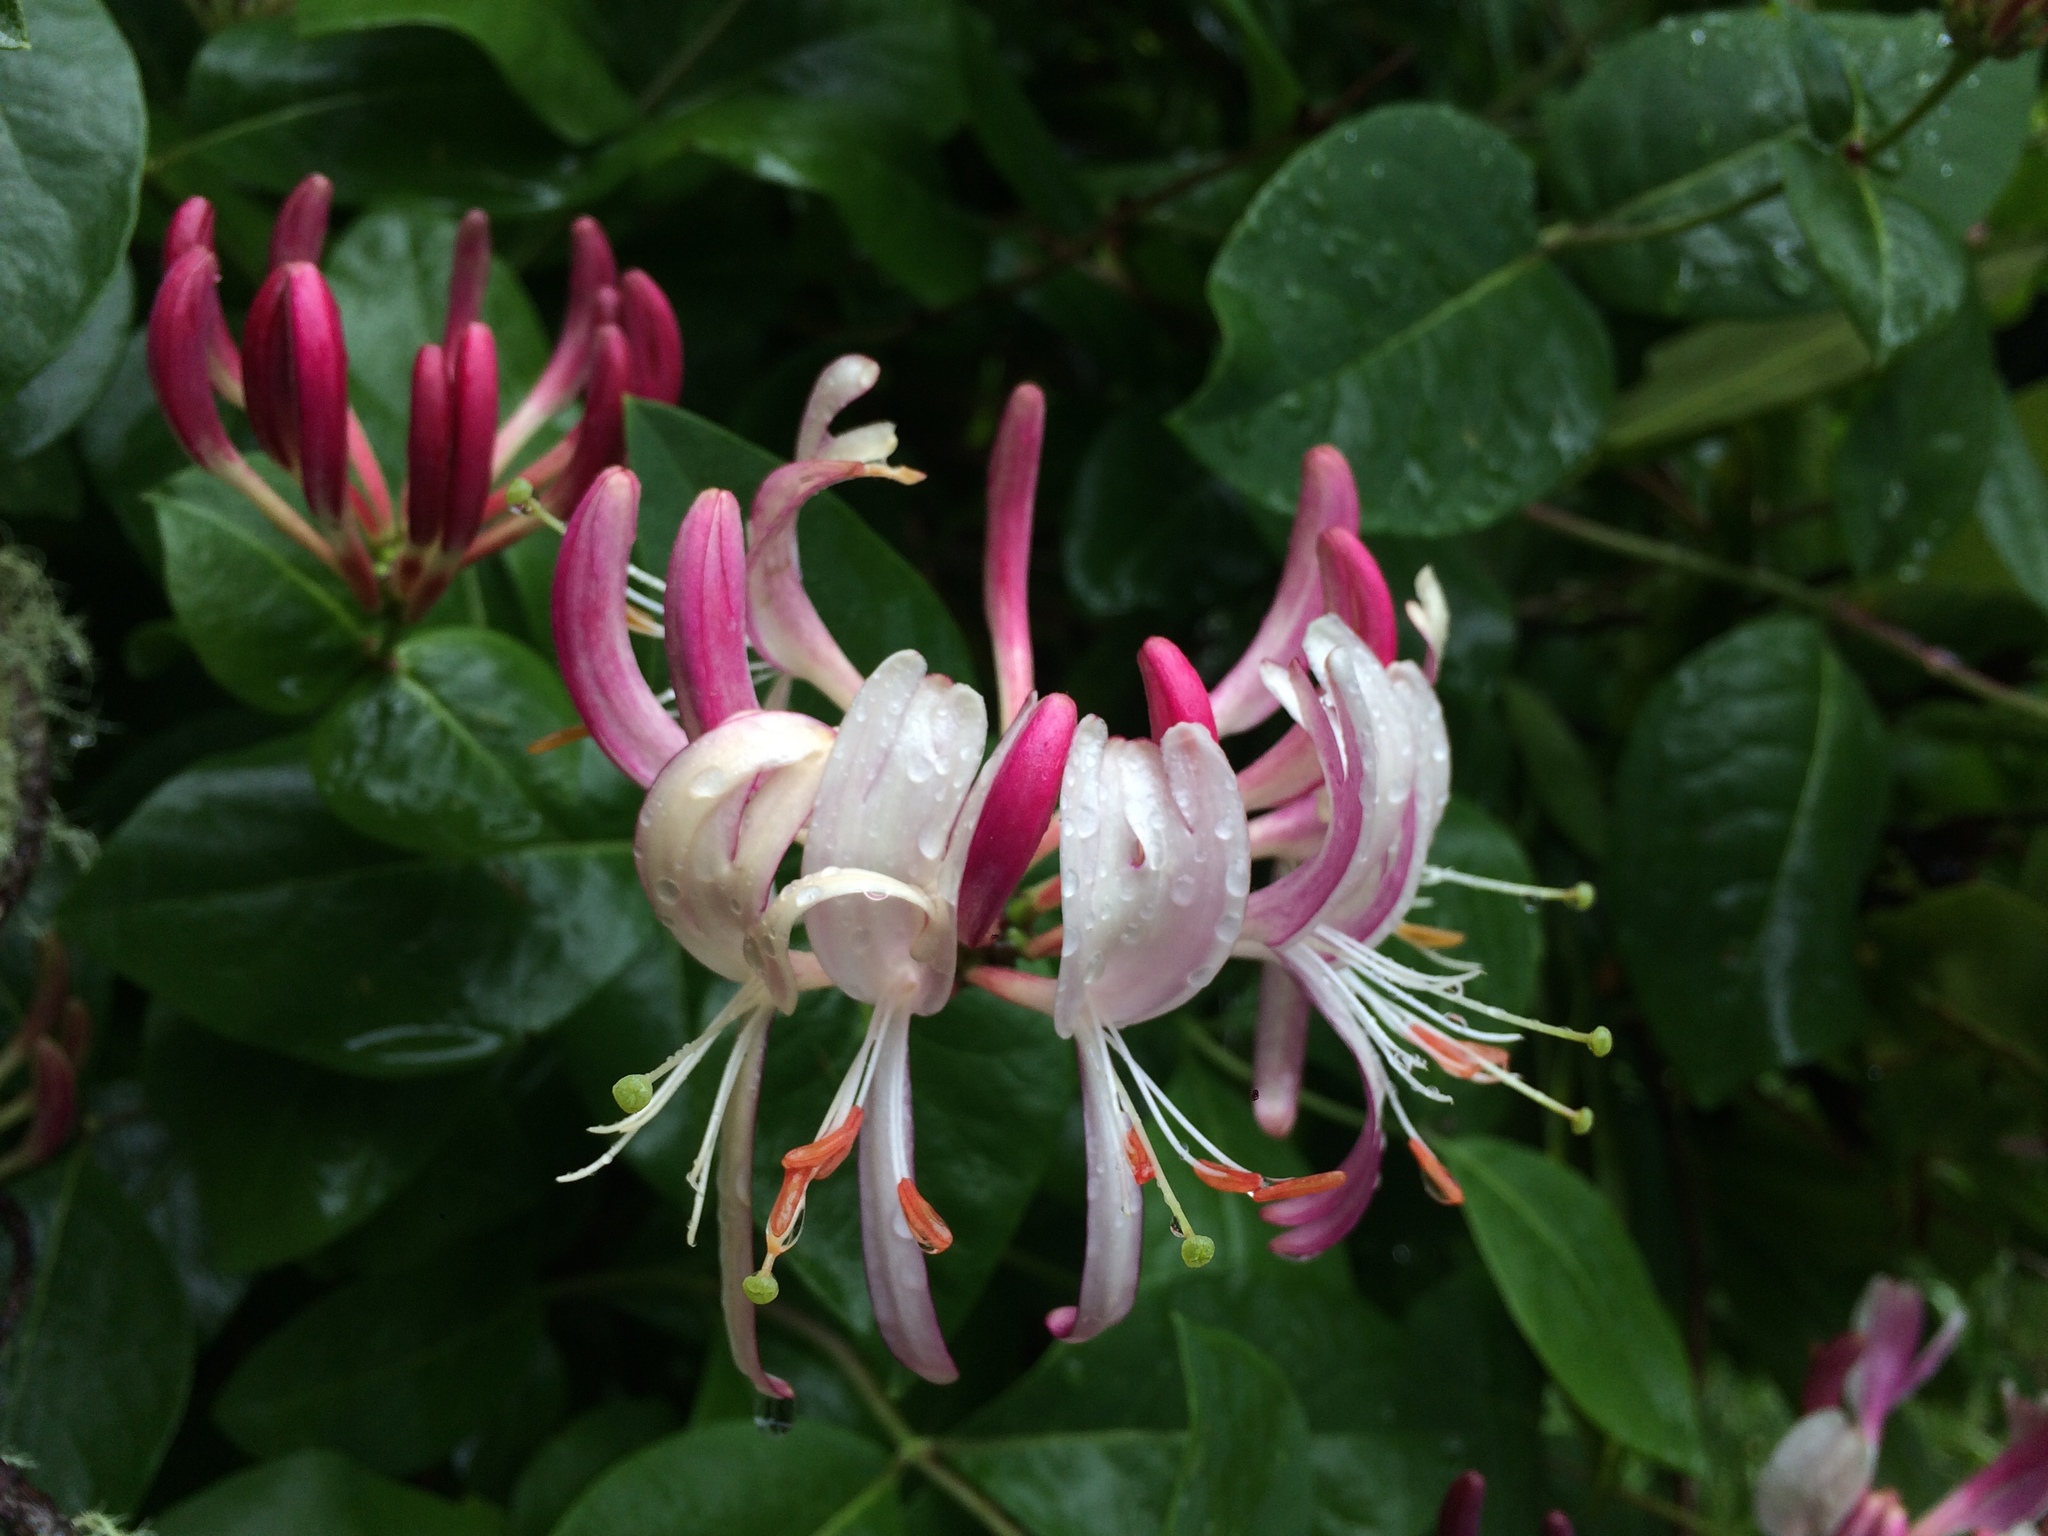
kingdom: Plantae
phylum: Tracheophyta
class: Magnoliopsida
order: Dipsacales
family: Caprifoliaceae
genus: Lonicera
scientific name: Lonicera periclymenum
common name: European honeysuckle
